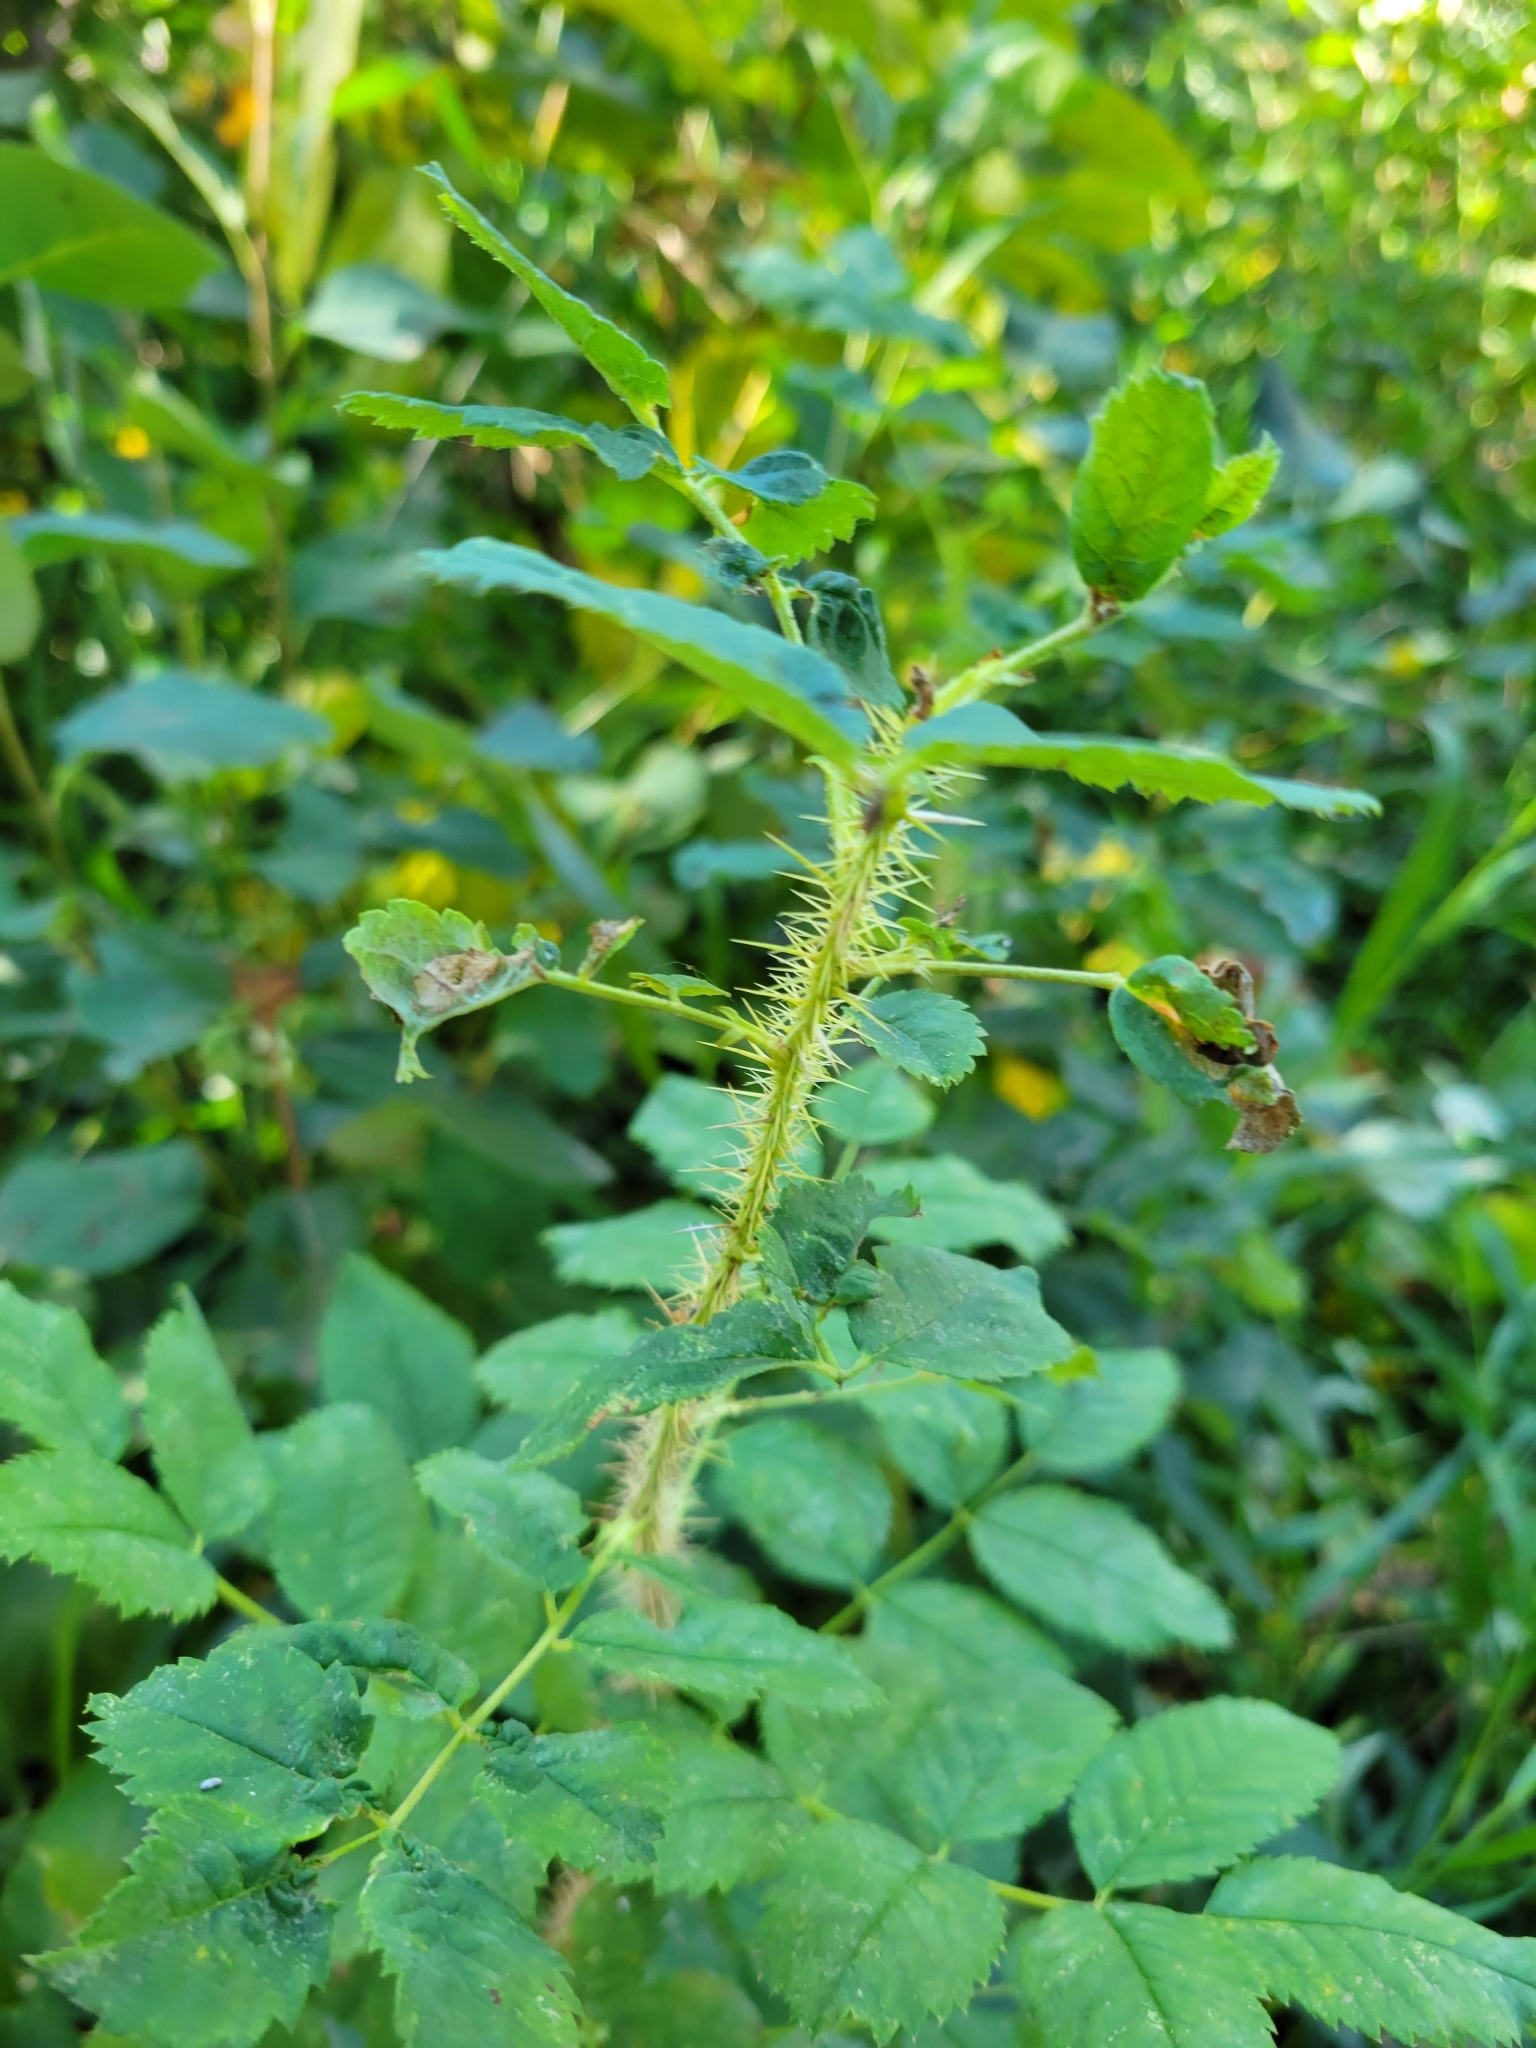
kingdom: Plantae
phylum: Tracheophyta
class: Magnoliopsida
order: Rosales
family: Rosaceae
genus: Rosa
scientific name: Rosa acicularis
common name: Prickly rose
